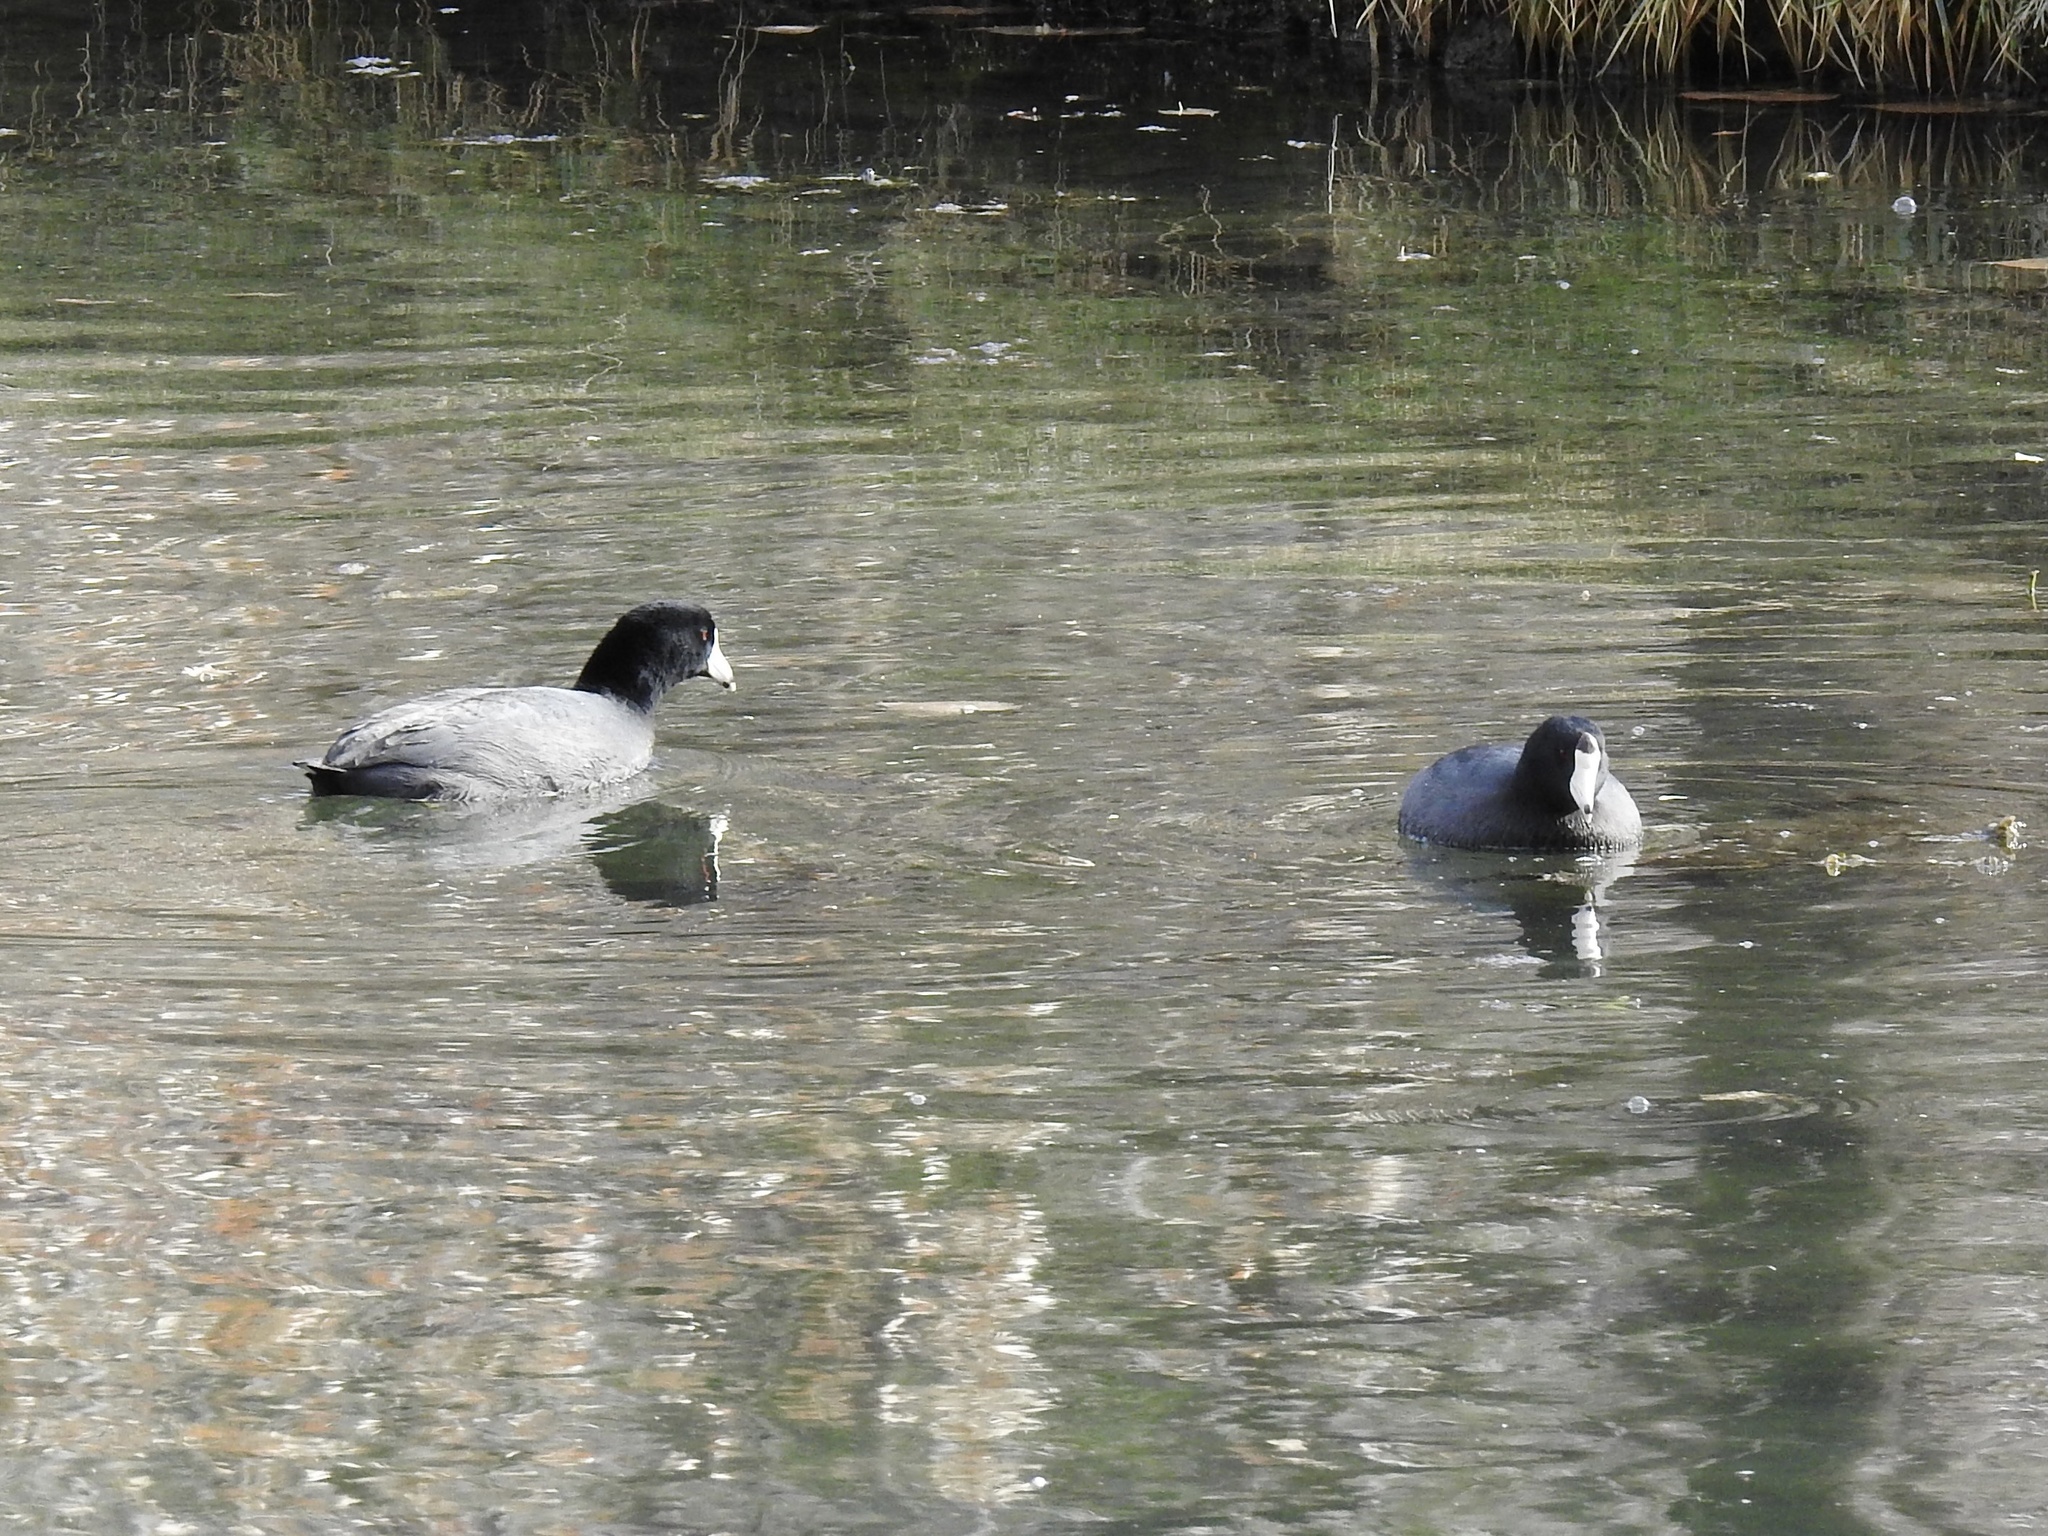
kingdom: Animalia
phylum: Chordata
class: Aves
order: Gruiformes
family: Rallidae
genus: Fulica
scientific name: Fulica americana
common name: American coot
